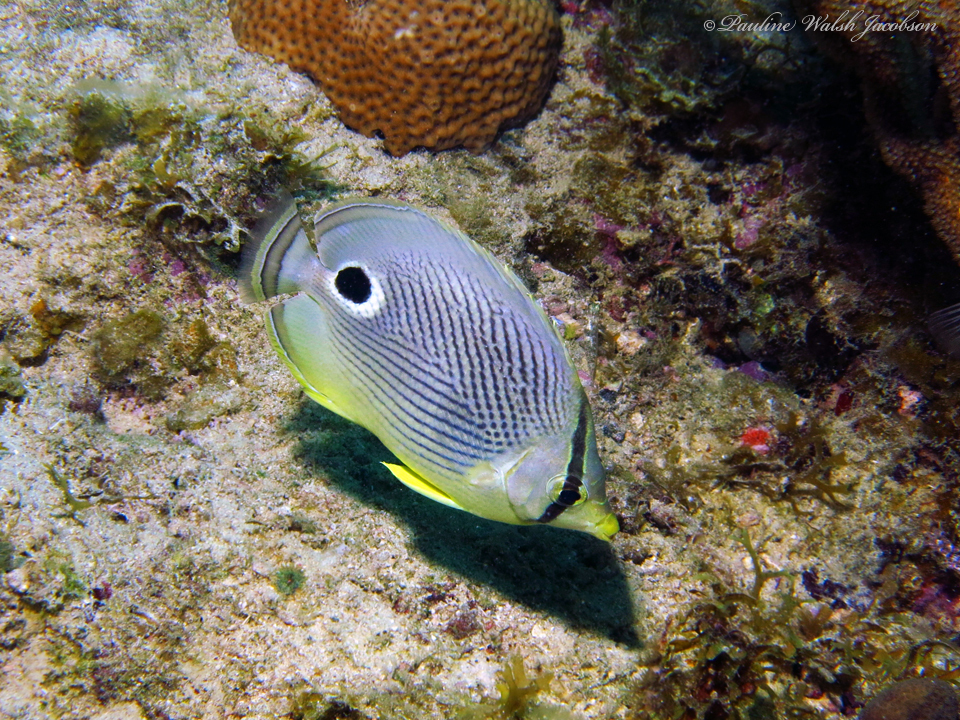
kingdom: Animalia
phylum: Chordata
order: Perciformes
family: Chaetodontidae
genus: Chaetodon
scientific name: Chaetodon capistratus
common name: Kete
